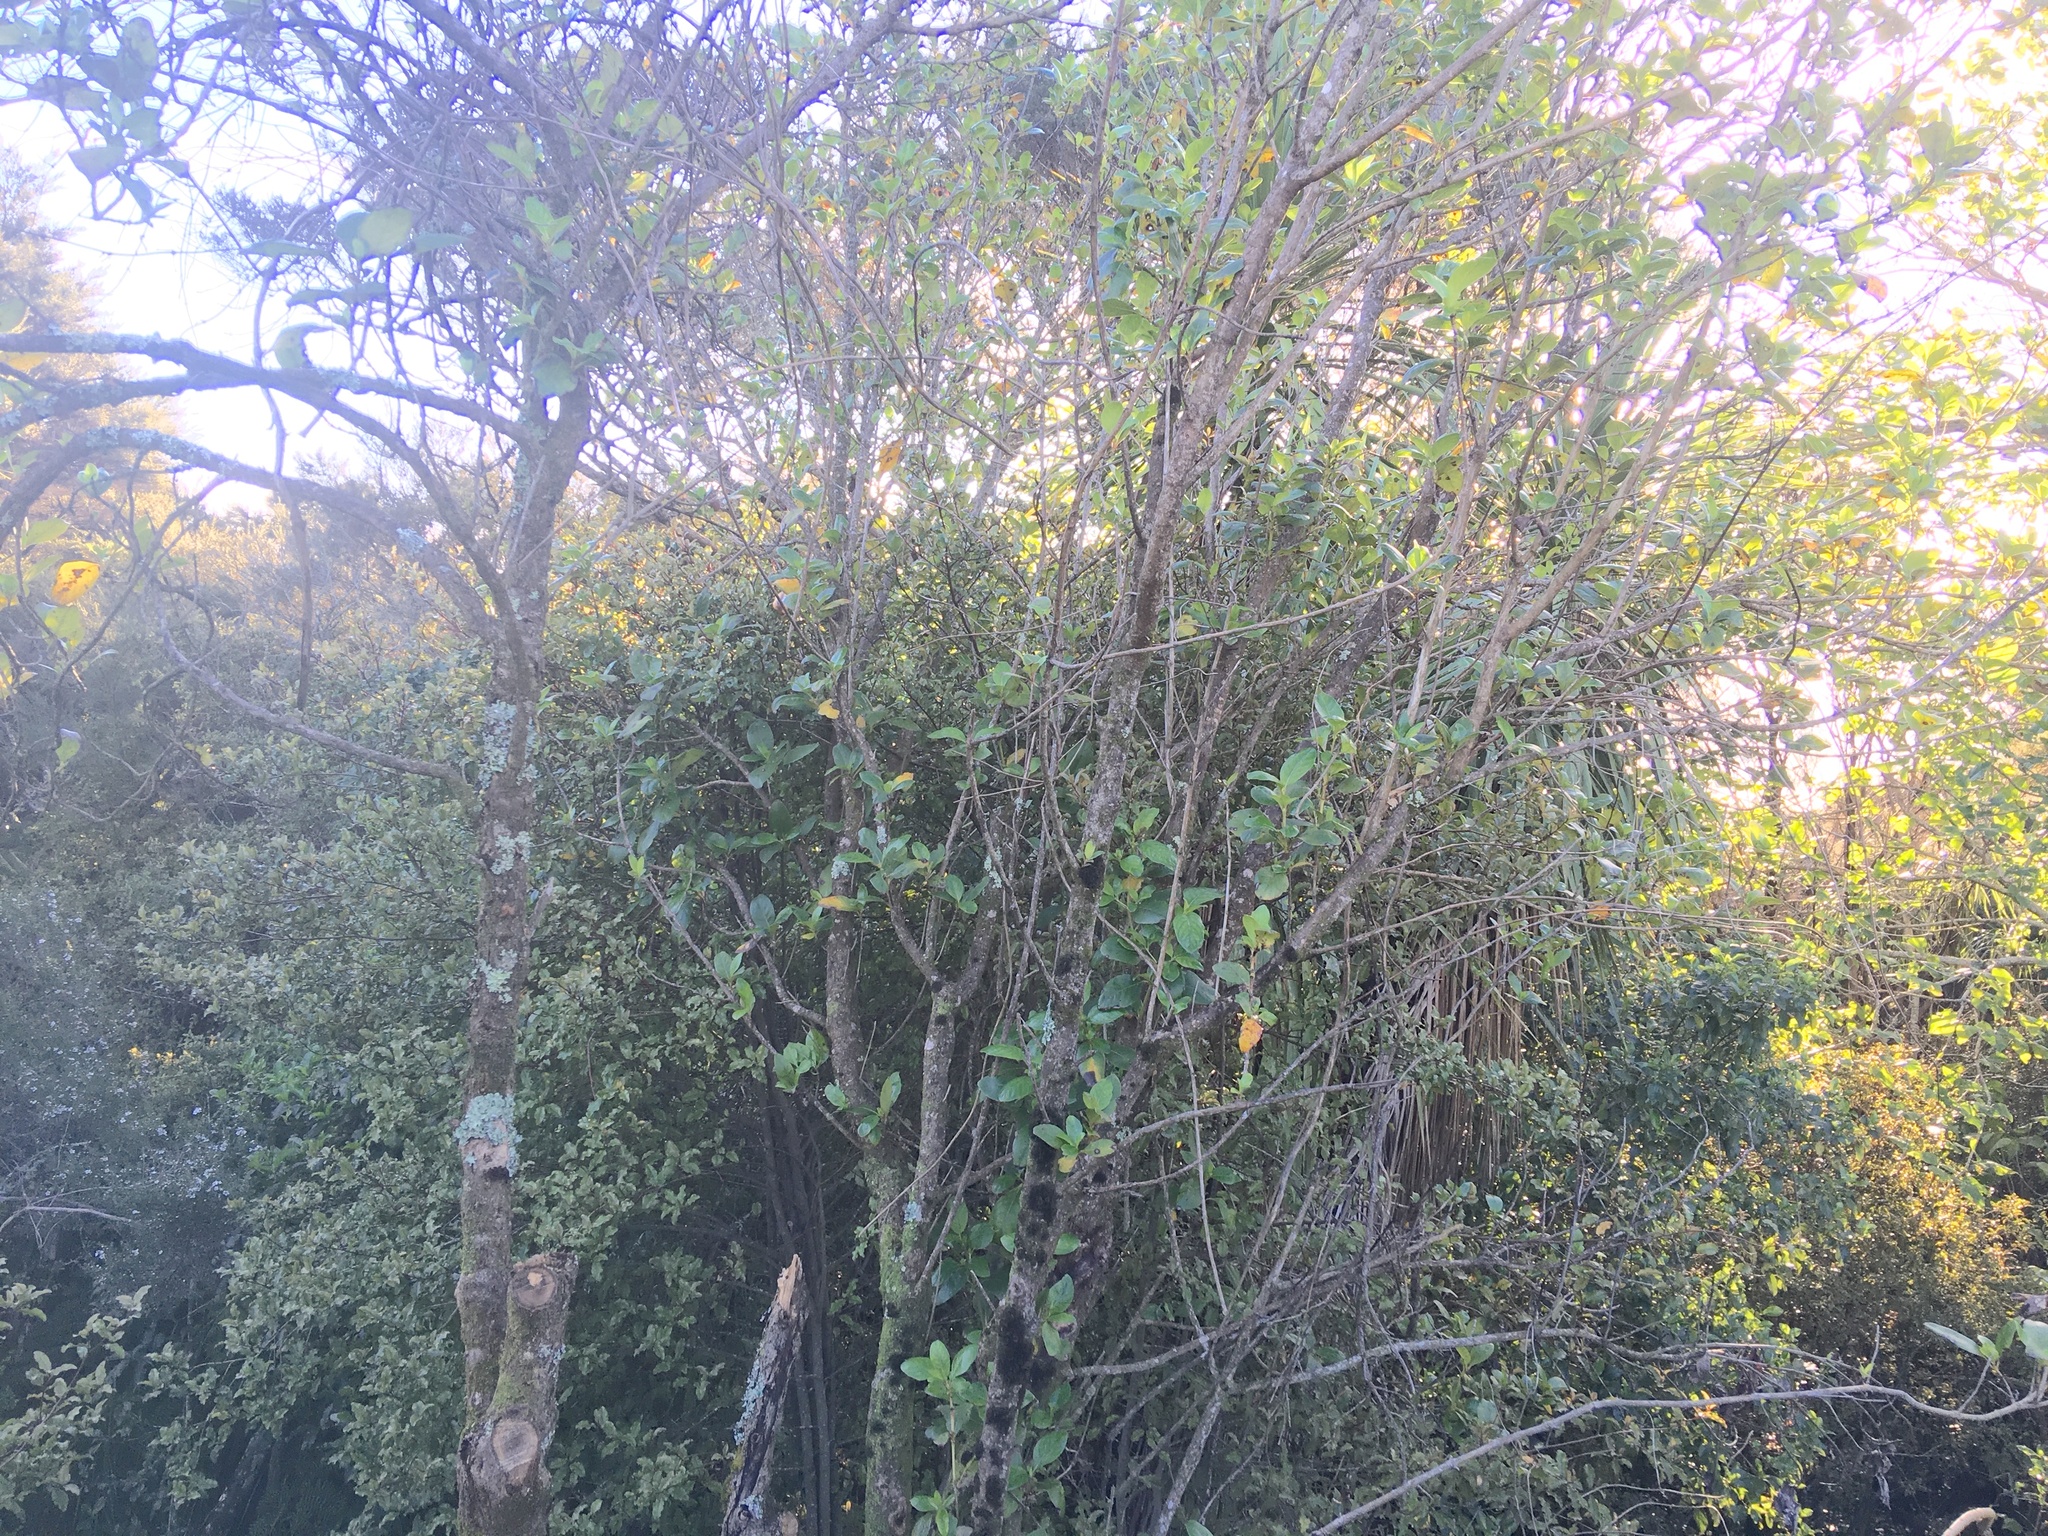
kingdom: Plantae
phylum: Tracheophyta
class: Magnoliopsida
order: Ericales
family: Primulaceae
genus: Myrsine
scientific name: Myrsine australis
